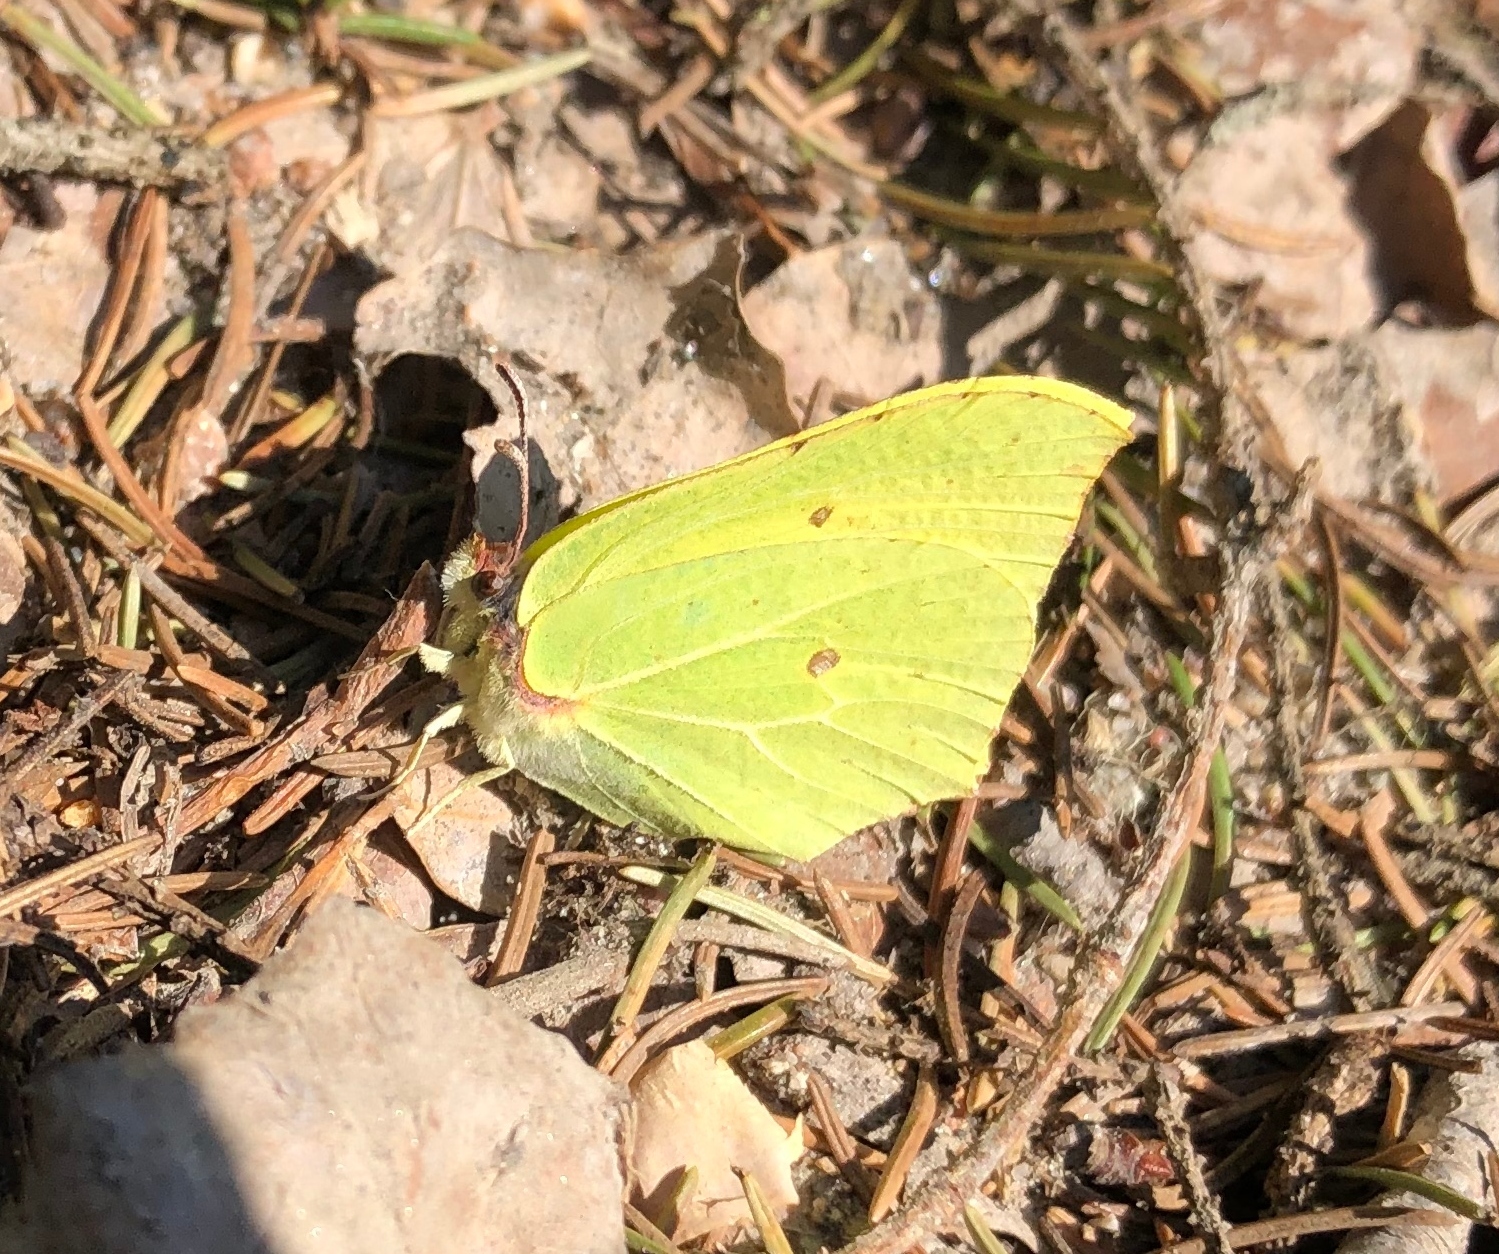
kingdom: Animalia
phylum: Arthropoda
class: Insecta
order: Lepidoptera
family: Pieridae
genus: Gonepteryx
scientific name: Gonepteryx rhamni
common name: Brimstone
